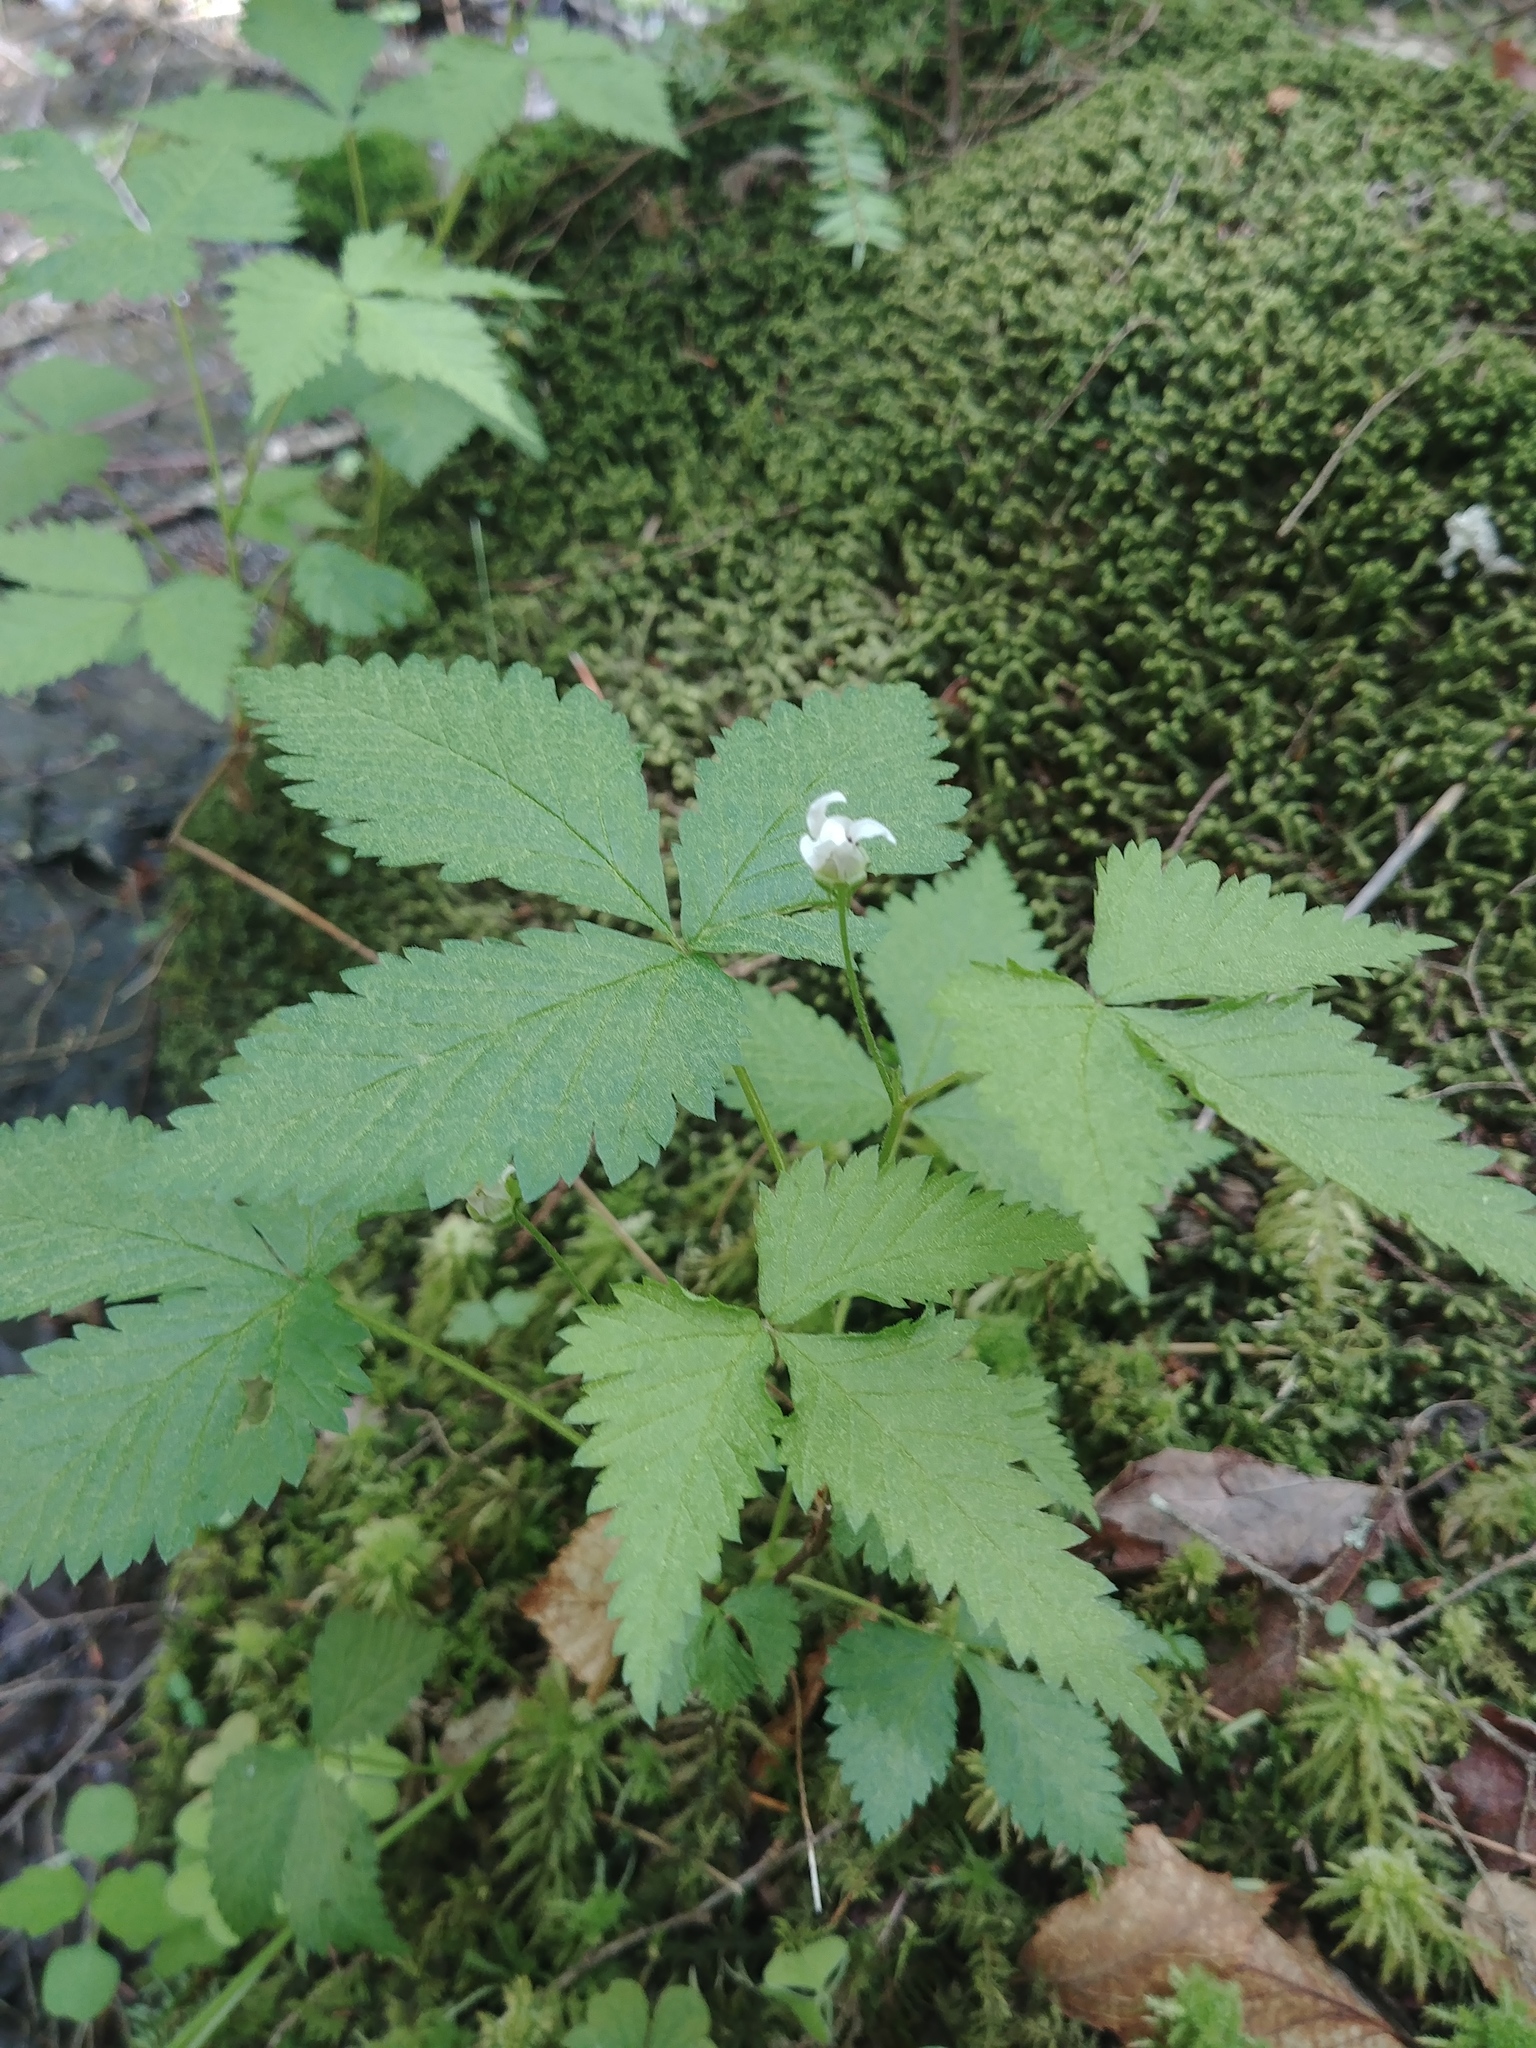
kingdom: Plantae
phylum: Tracheophyta
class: Magnoliopsida
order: Rosales
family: Rosaceae
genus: Rubus
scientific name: Rubus pubescens
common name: Dwarf raspberry
